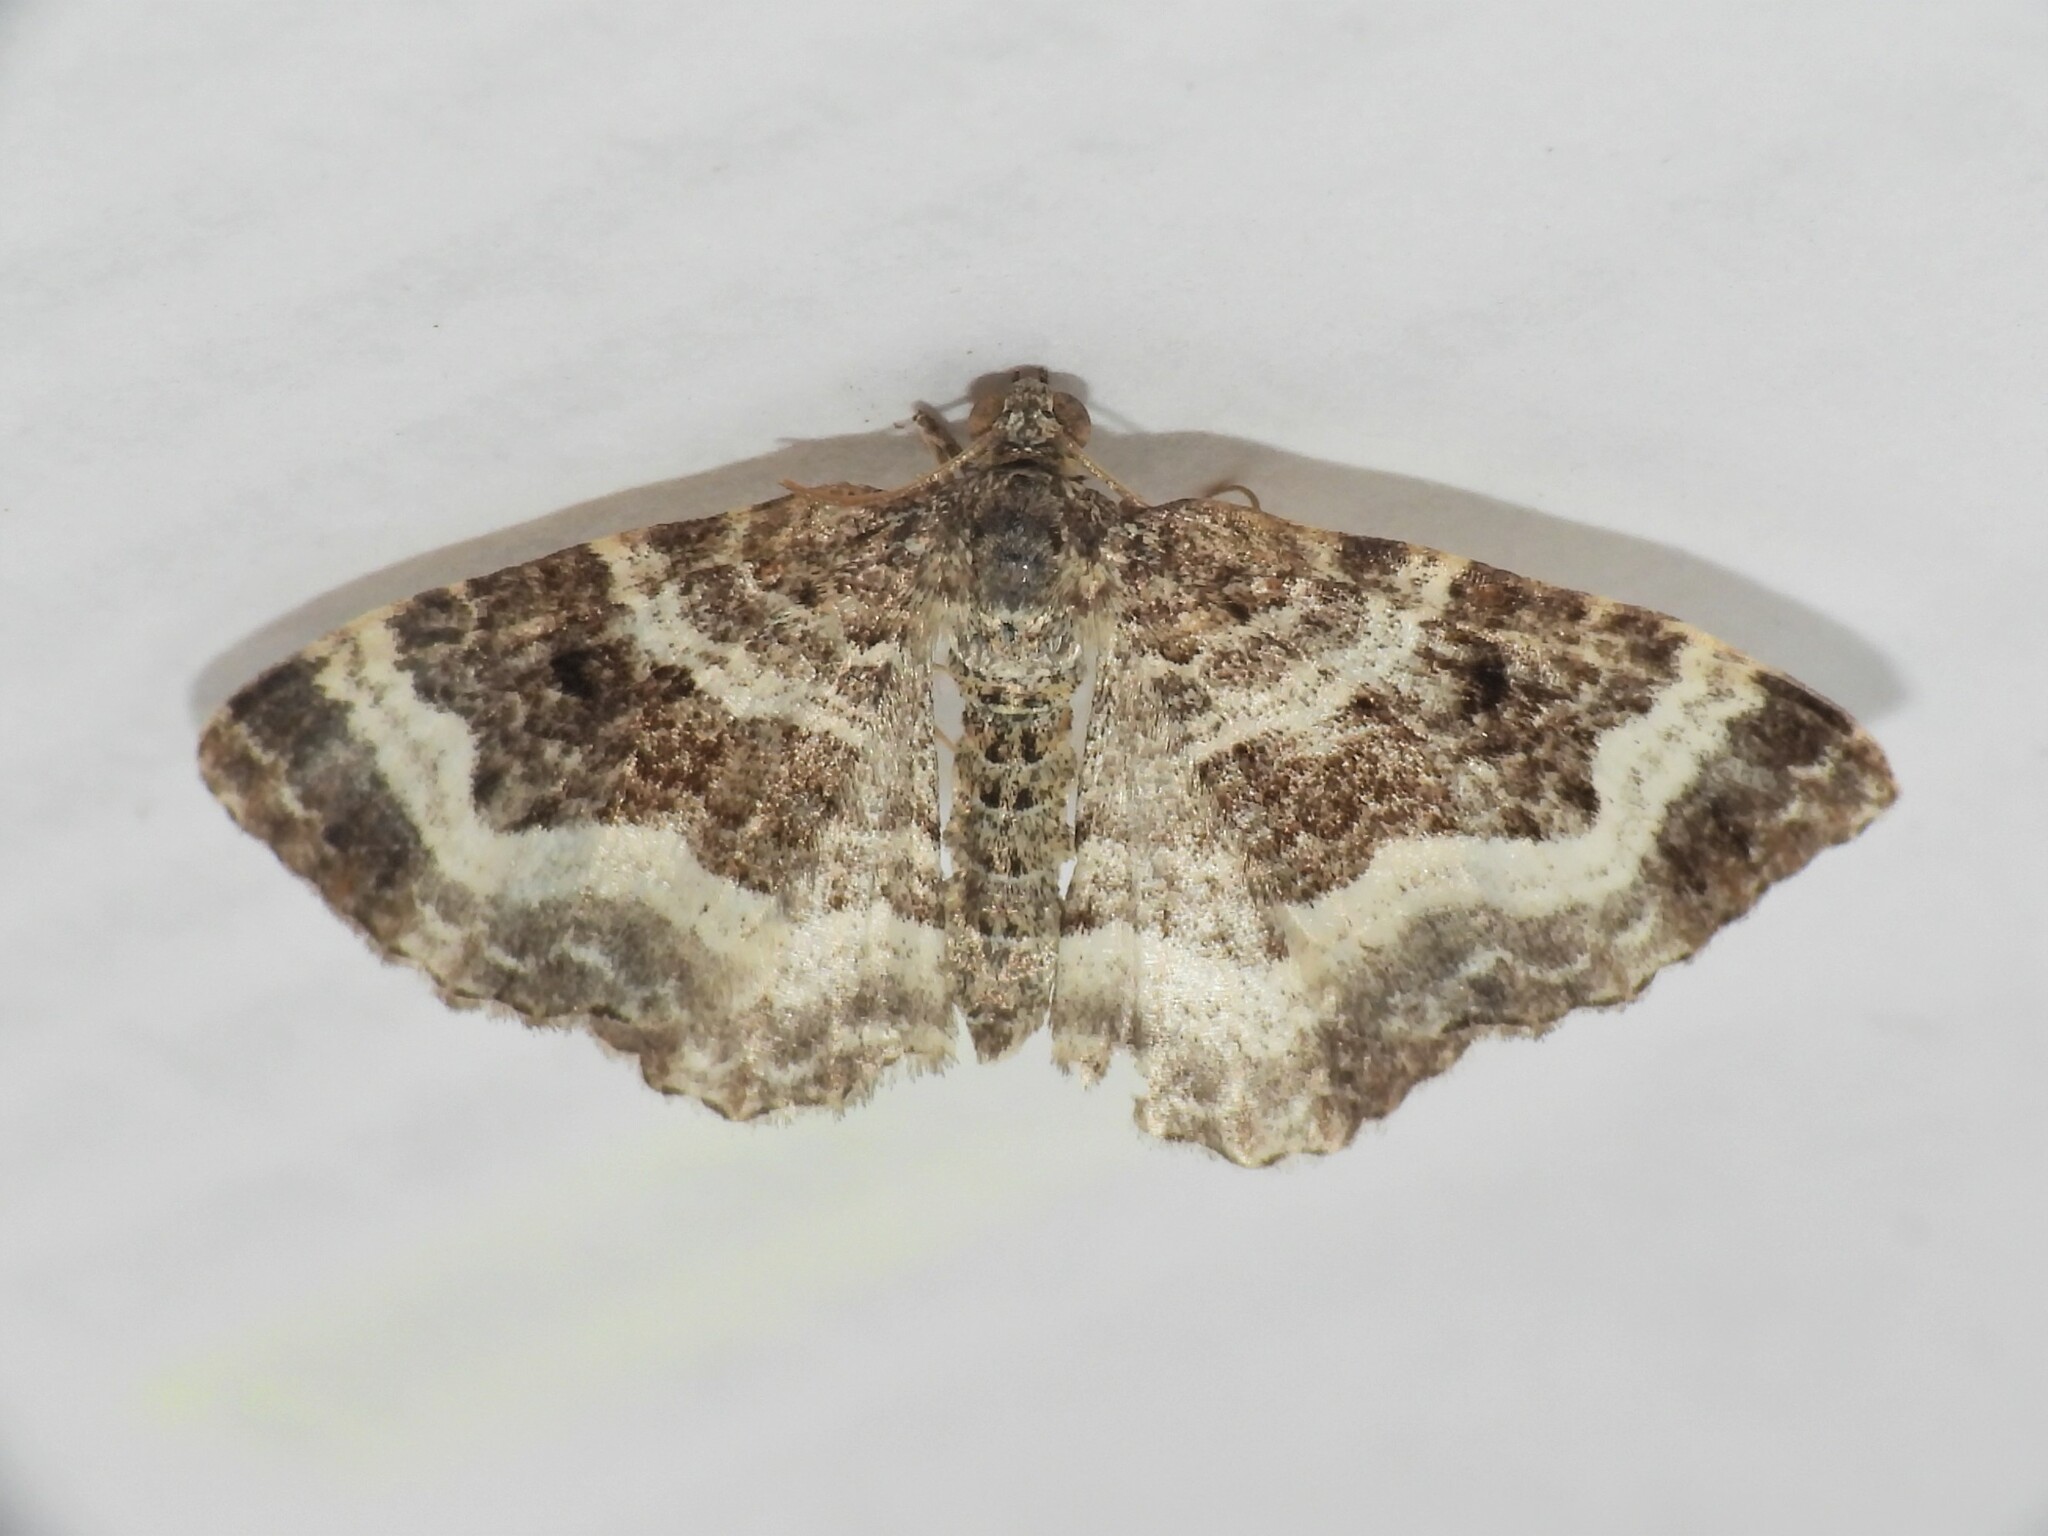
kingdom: Animalia
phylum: Arthropoda
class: Insecta
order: Lepidoptera
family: Geometridae
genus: Epirrhoe
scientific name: Epirrhoe alternata
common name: Common carpet
